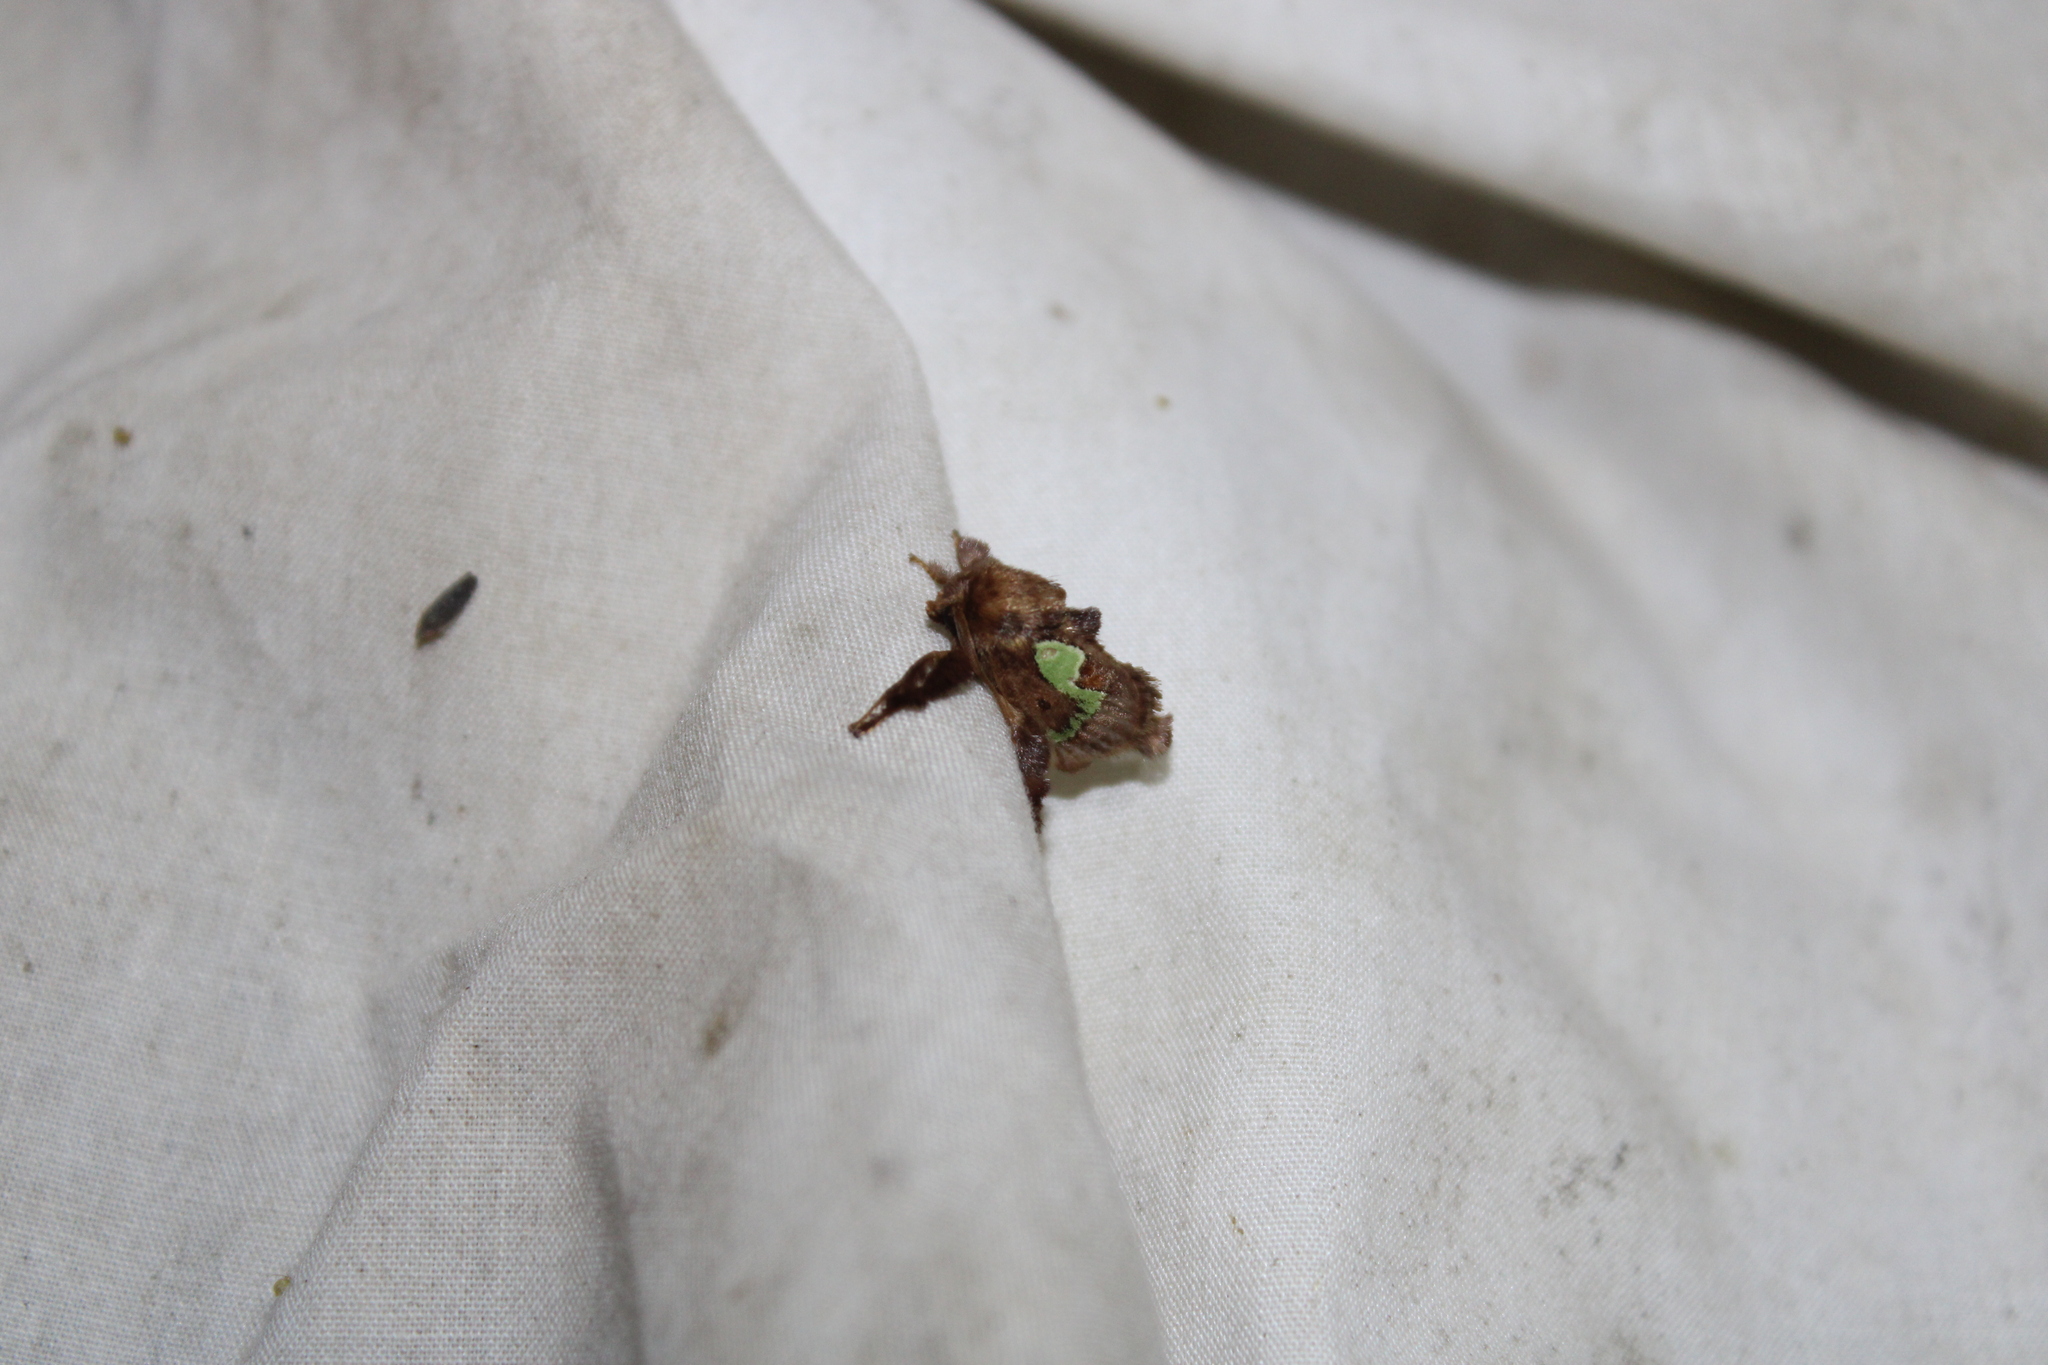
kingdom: Animalia
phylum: Arthropoda
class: Insecta
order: Lepidoptera
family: Limacodidae
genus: Euclea
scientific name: Euclea delphinii
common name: Spiny oak-slug moth
